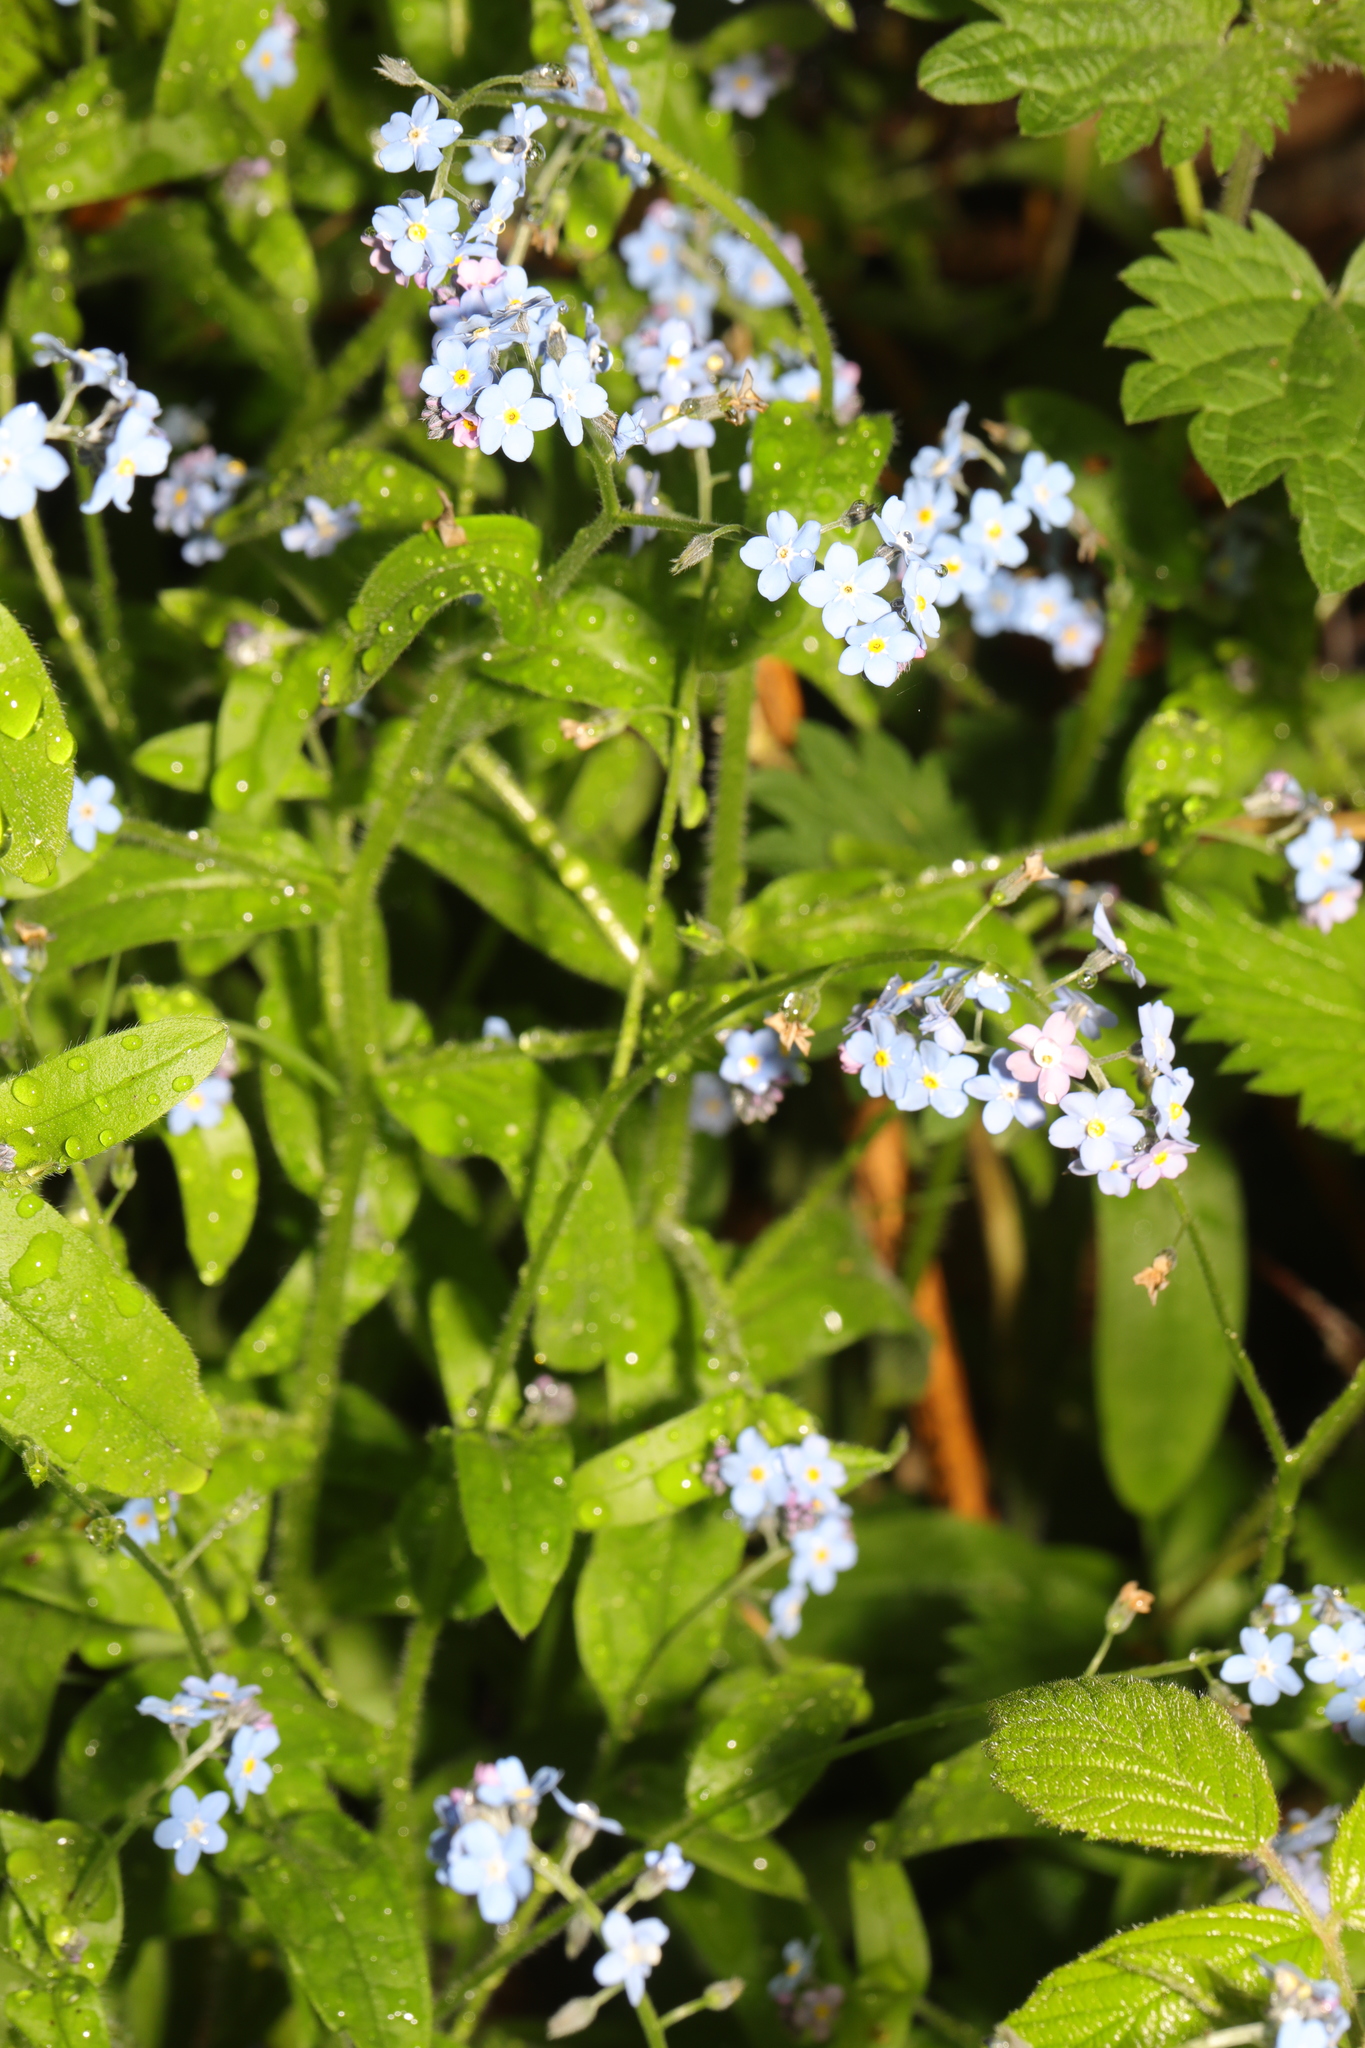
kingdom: Plantae
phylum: Tracheophyta
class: Magnoliopsida
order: Boraginales
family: Boraginaceae
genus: Myosotis
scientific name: Myosotis sylvatica
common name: Wood forget-me-not
